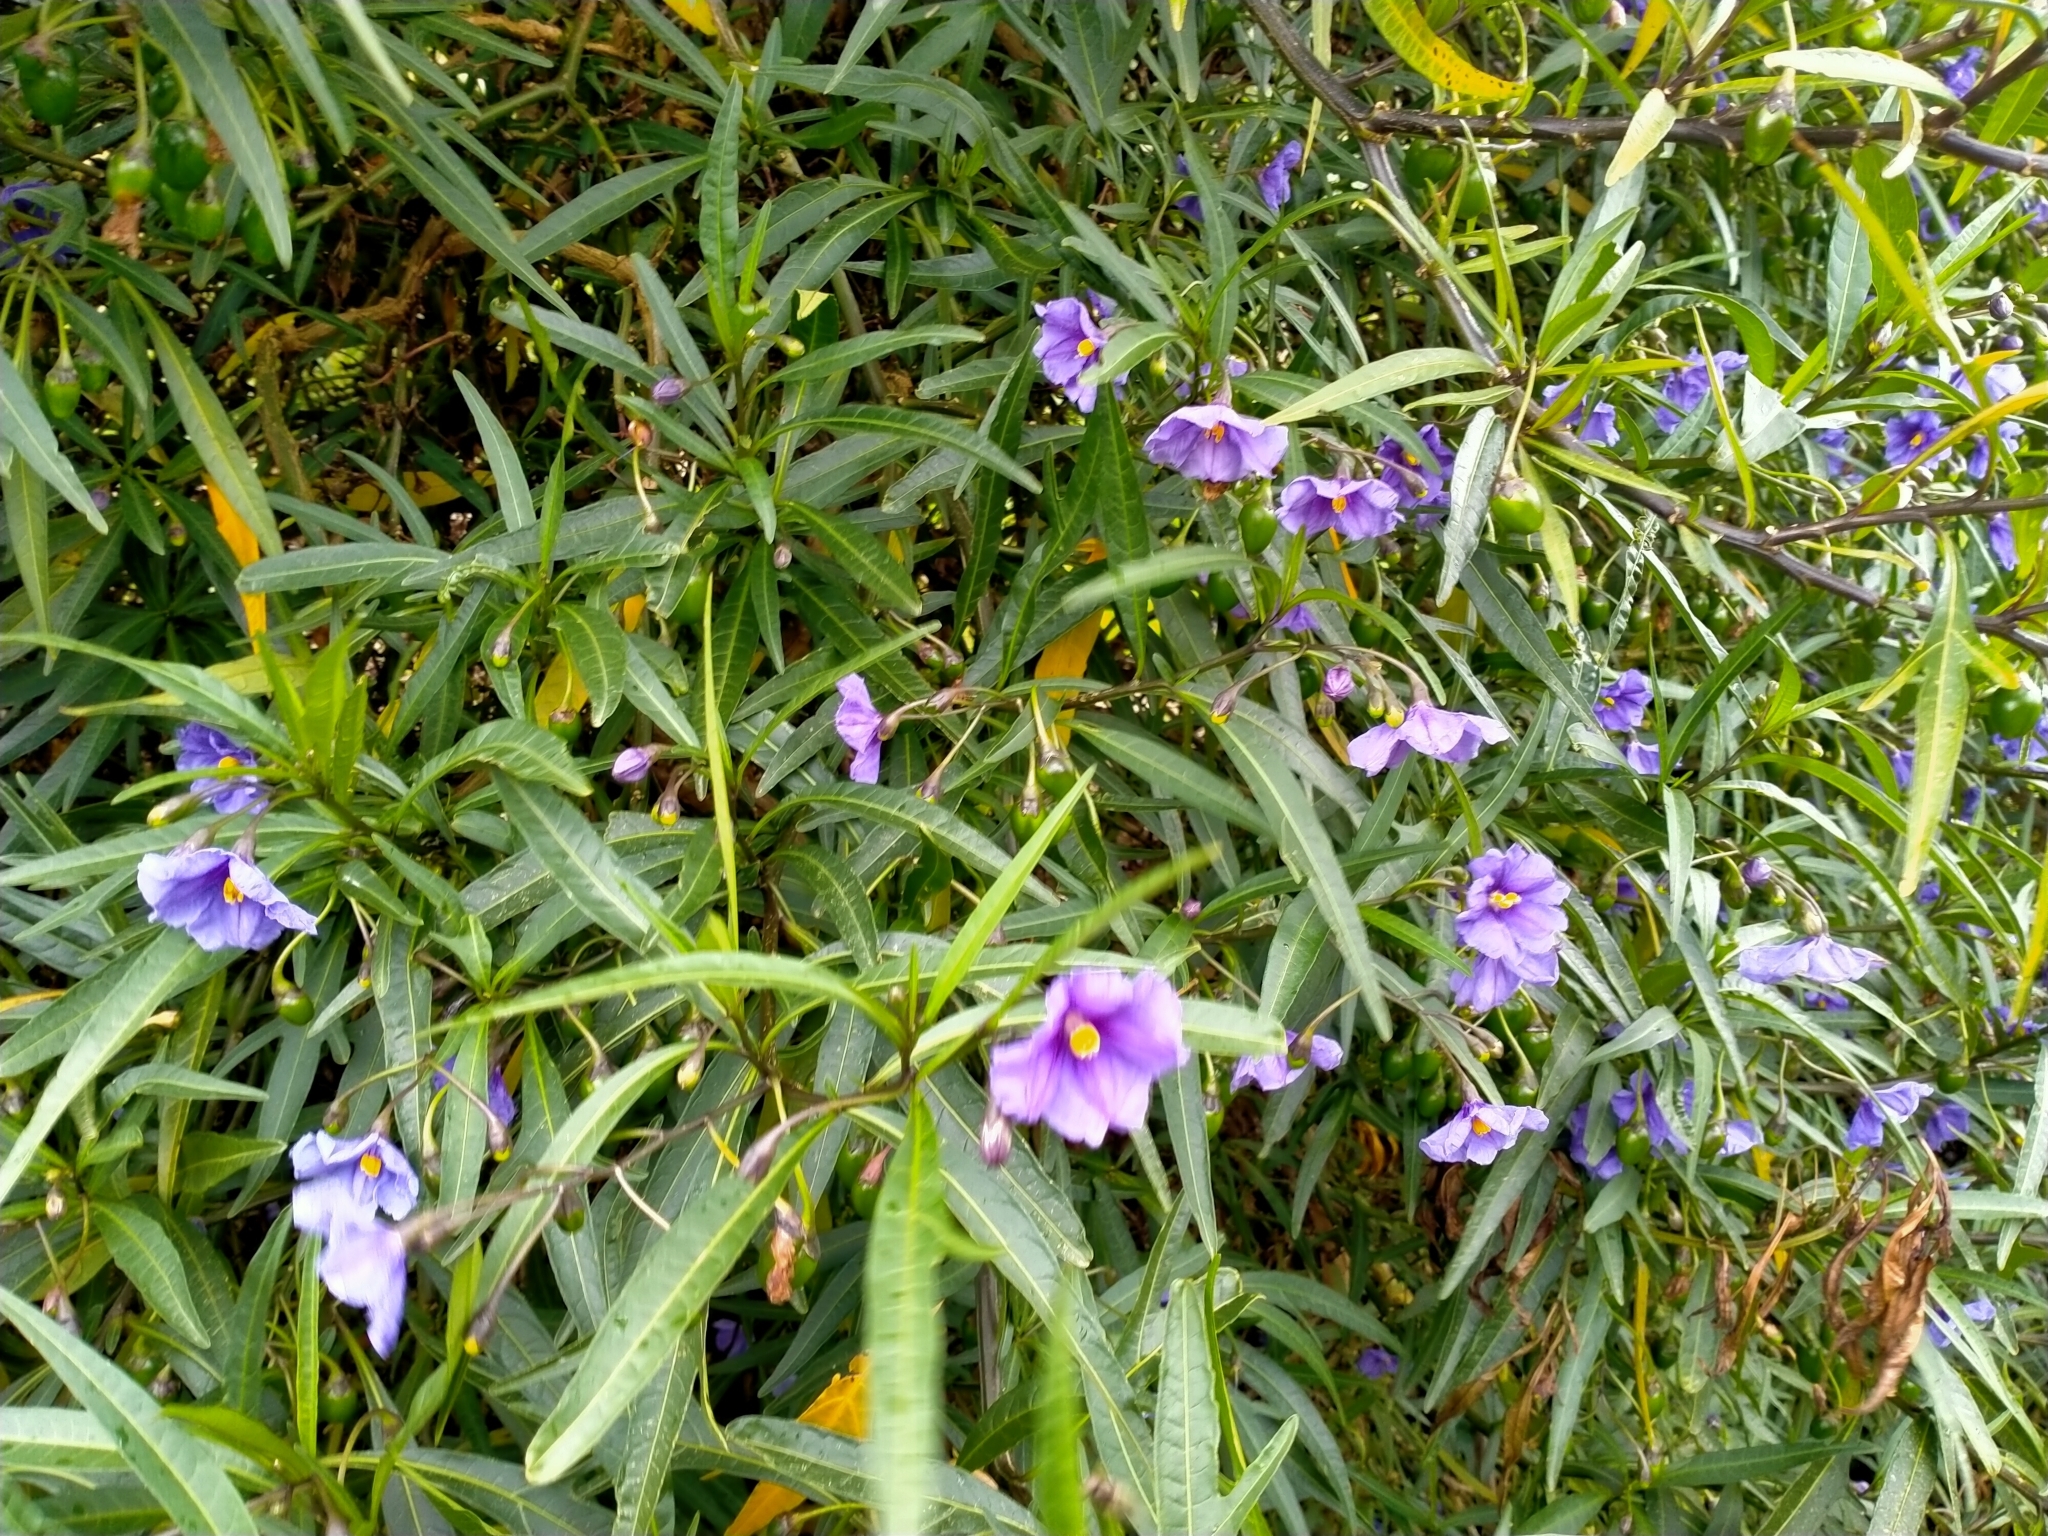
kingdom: Plantae
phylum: Tracheophyta
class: Magnoliopsida
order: Solanales
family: Solanaceae
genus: Solanum
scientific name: Solanum laciniatum
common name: Kangaroo-apple
